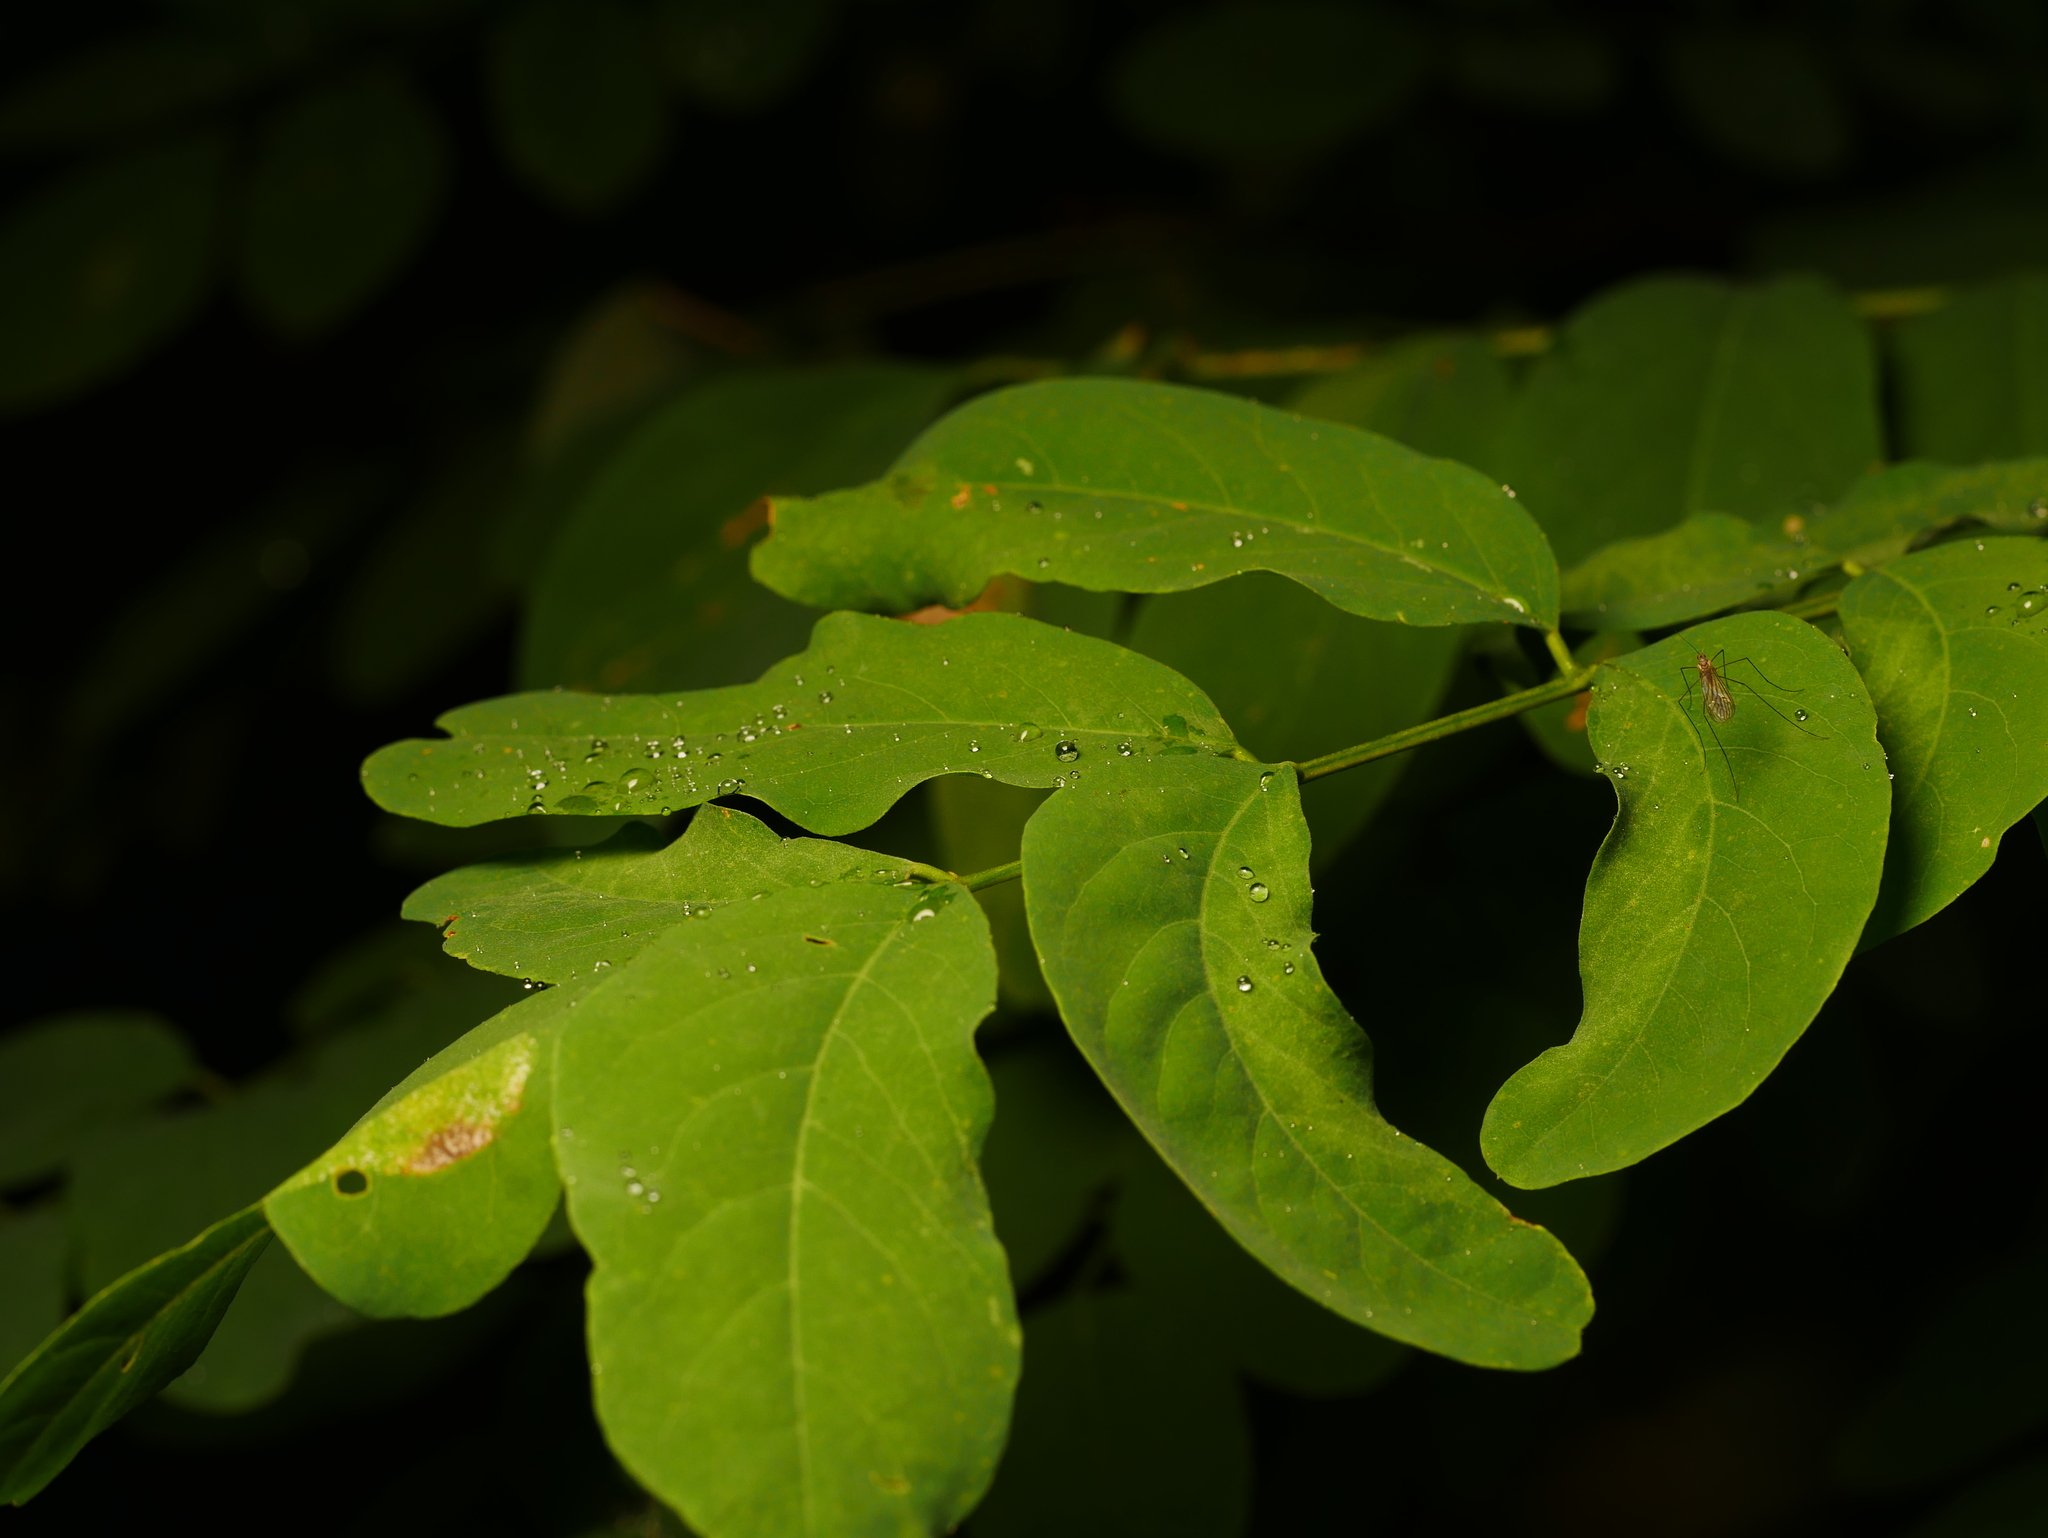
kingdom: Plantae
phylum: Tracheophyta
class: Magnoliopsida
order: Fabales
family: Fabaceae
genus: Robinia
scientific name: Robinia pseudoacacia
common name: Black locust
